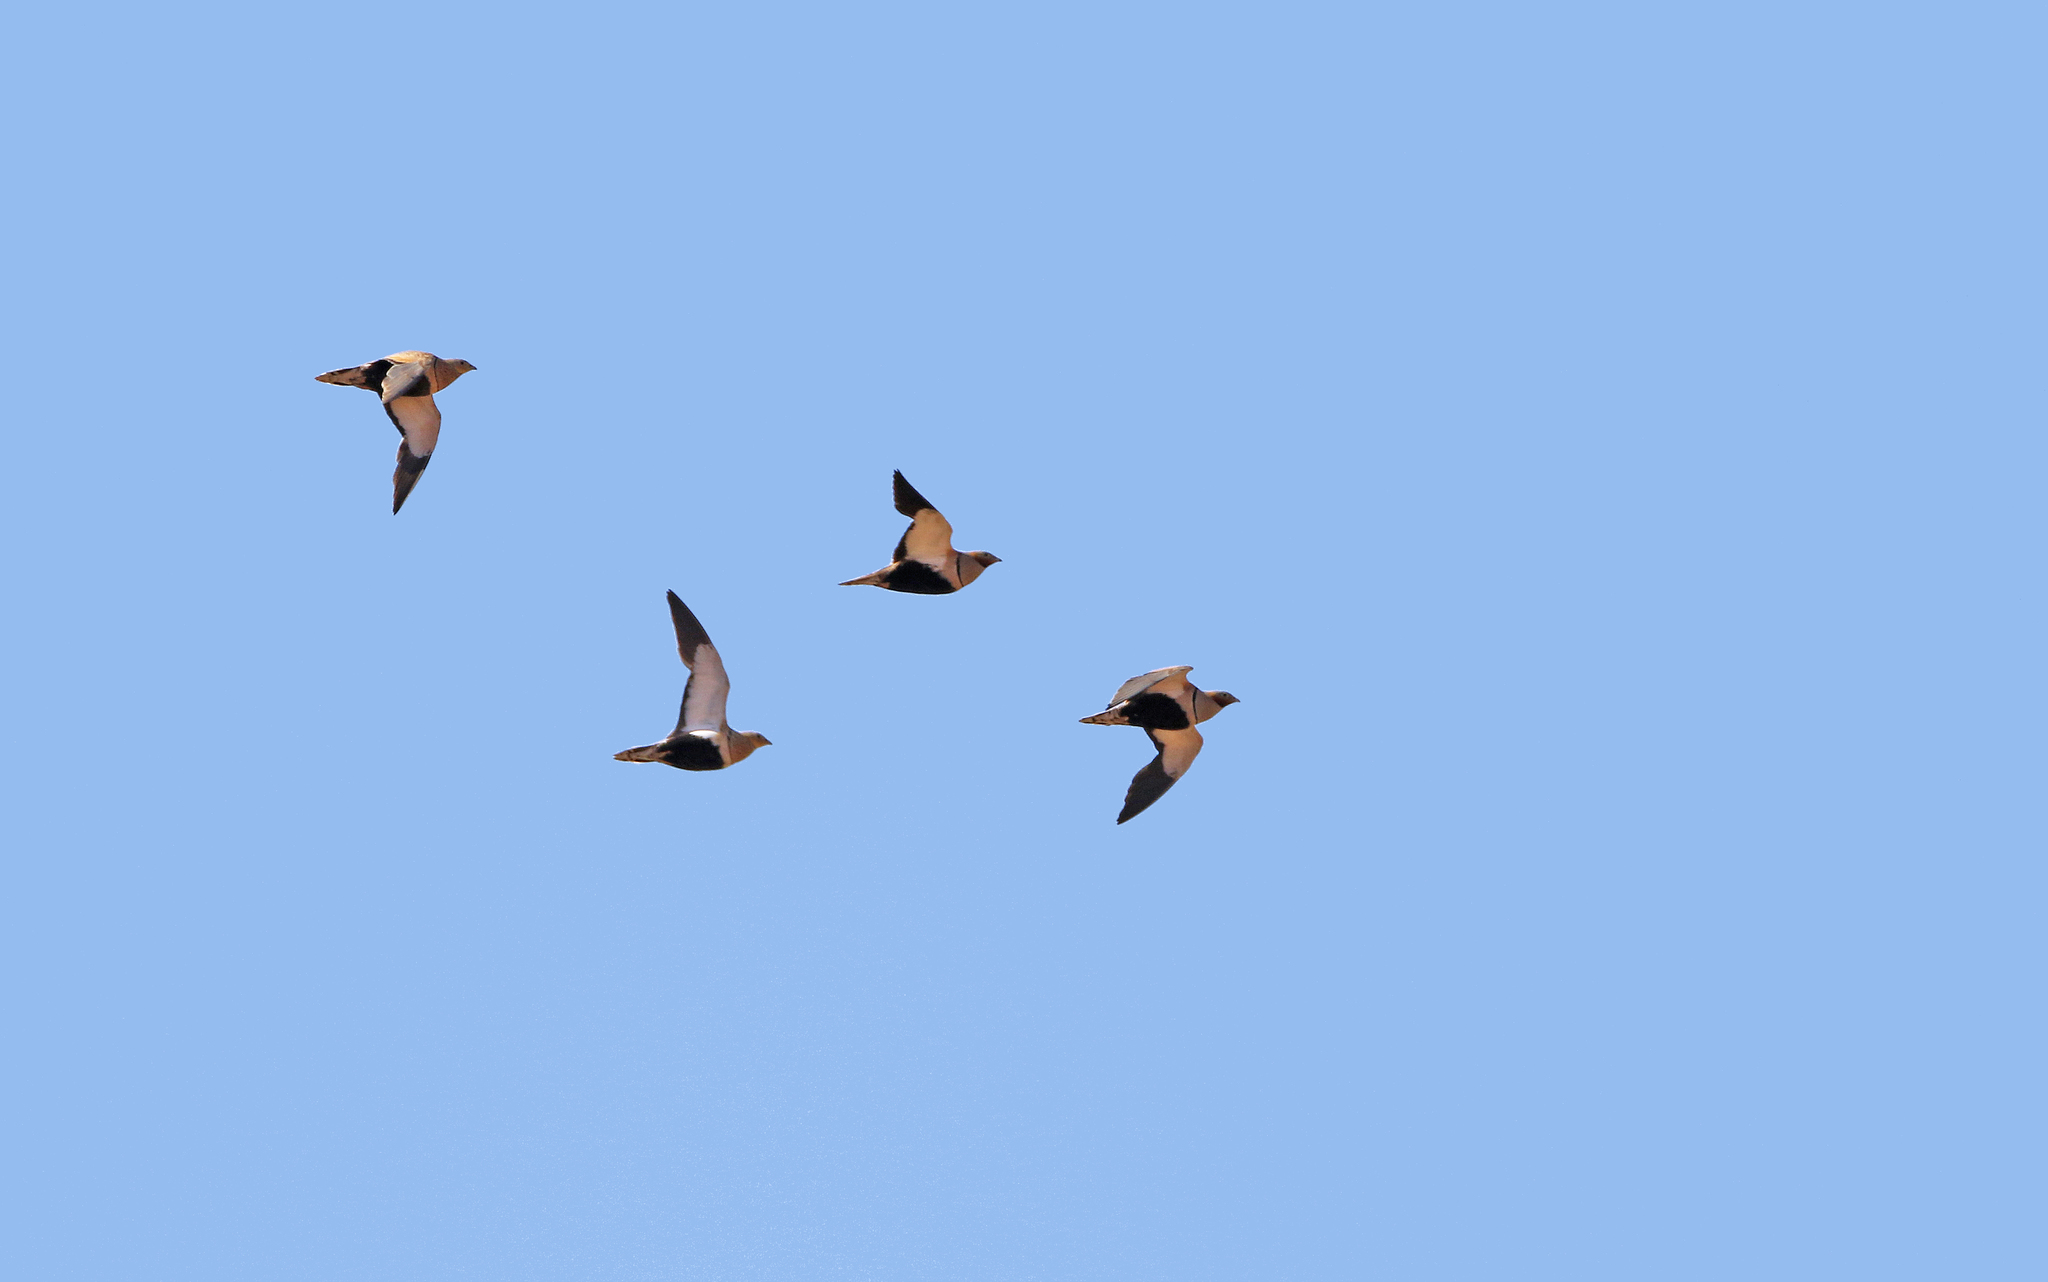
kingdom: Animalia
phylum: Chordata
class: Aves
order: Pteroclidiformes
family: Pteroclididae
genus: Pterocles
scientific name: Pterocles orientalis
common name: Black-bellied sandgrouse
